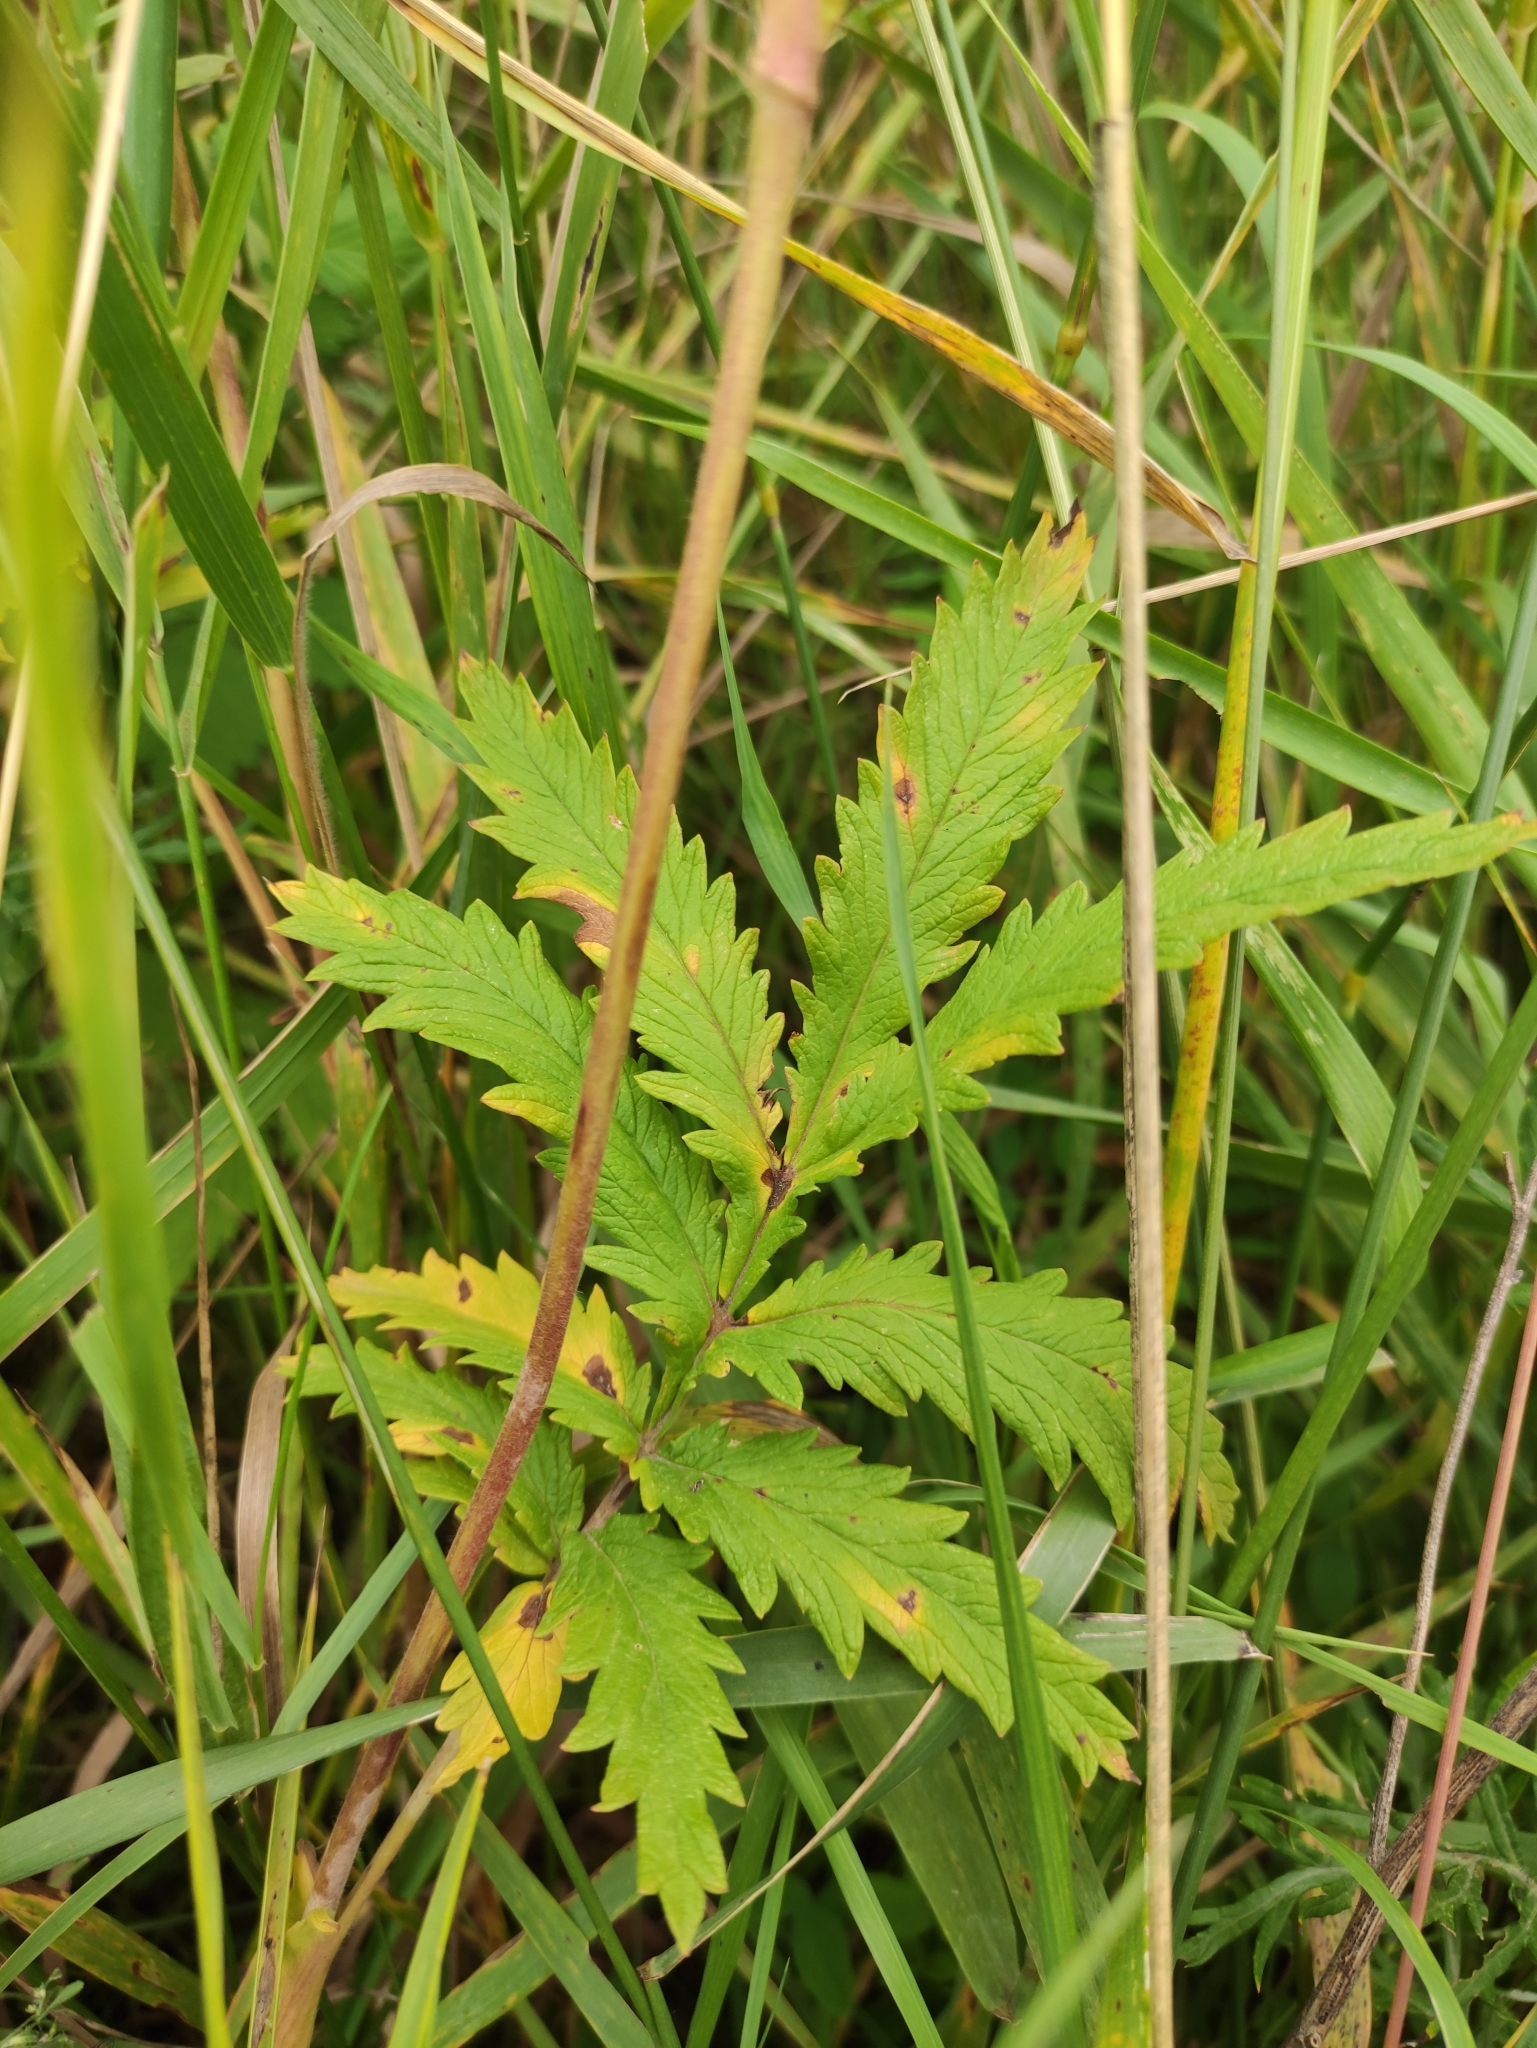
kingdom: Plantae
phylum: Tracheophyta
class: Magnoliopsida
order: Rosales
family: Rosaceae
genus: Potentilla
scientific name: Potentilla tanacetifolia
